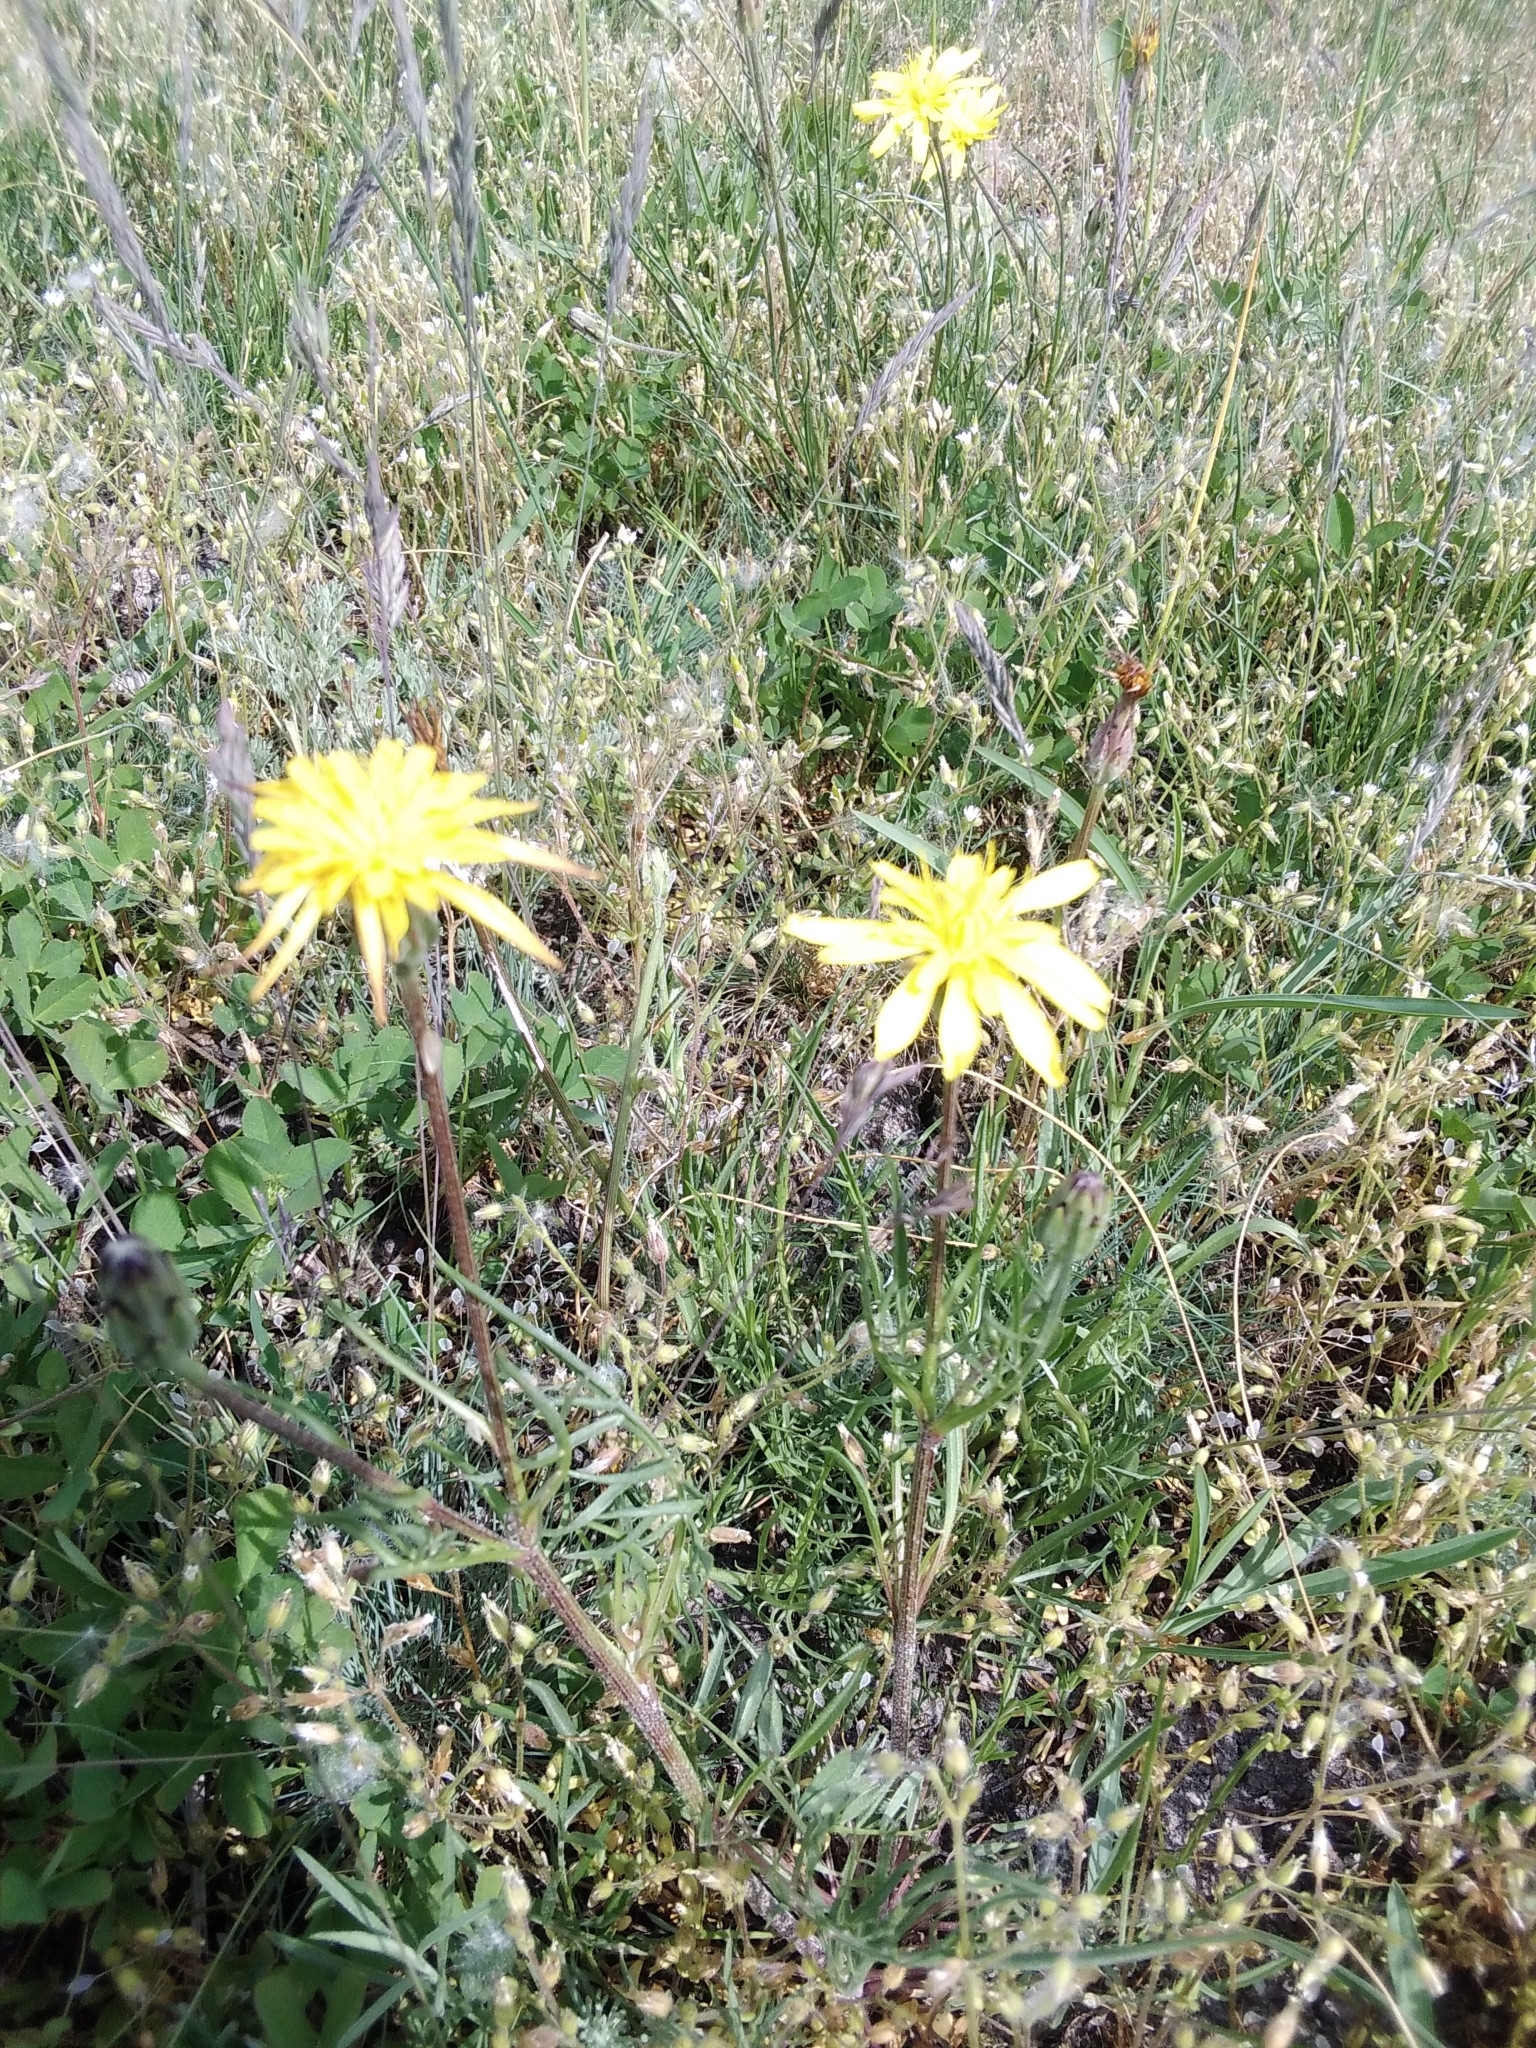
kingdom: Plantae
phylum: Tracheophyta
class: Magnoliopsida
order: Asterales
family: Asteraceae
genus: Scorzonera
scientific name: Scorzonera cana
